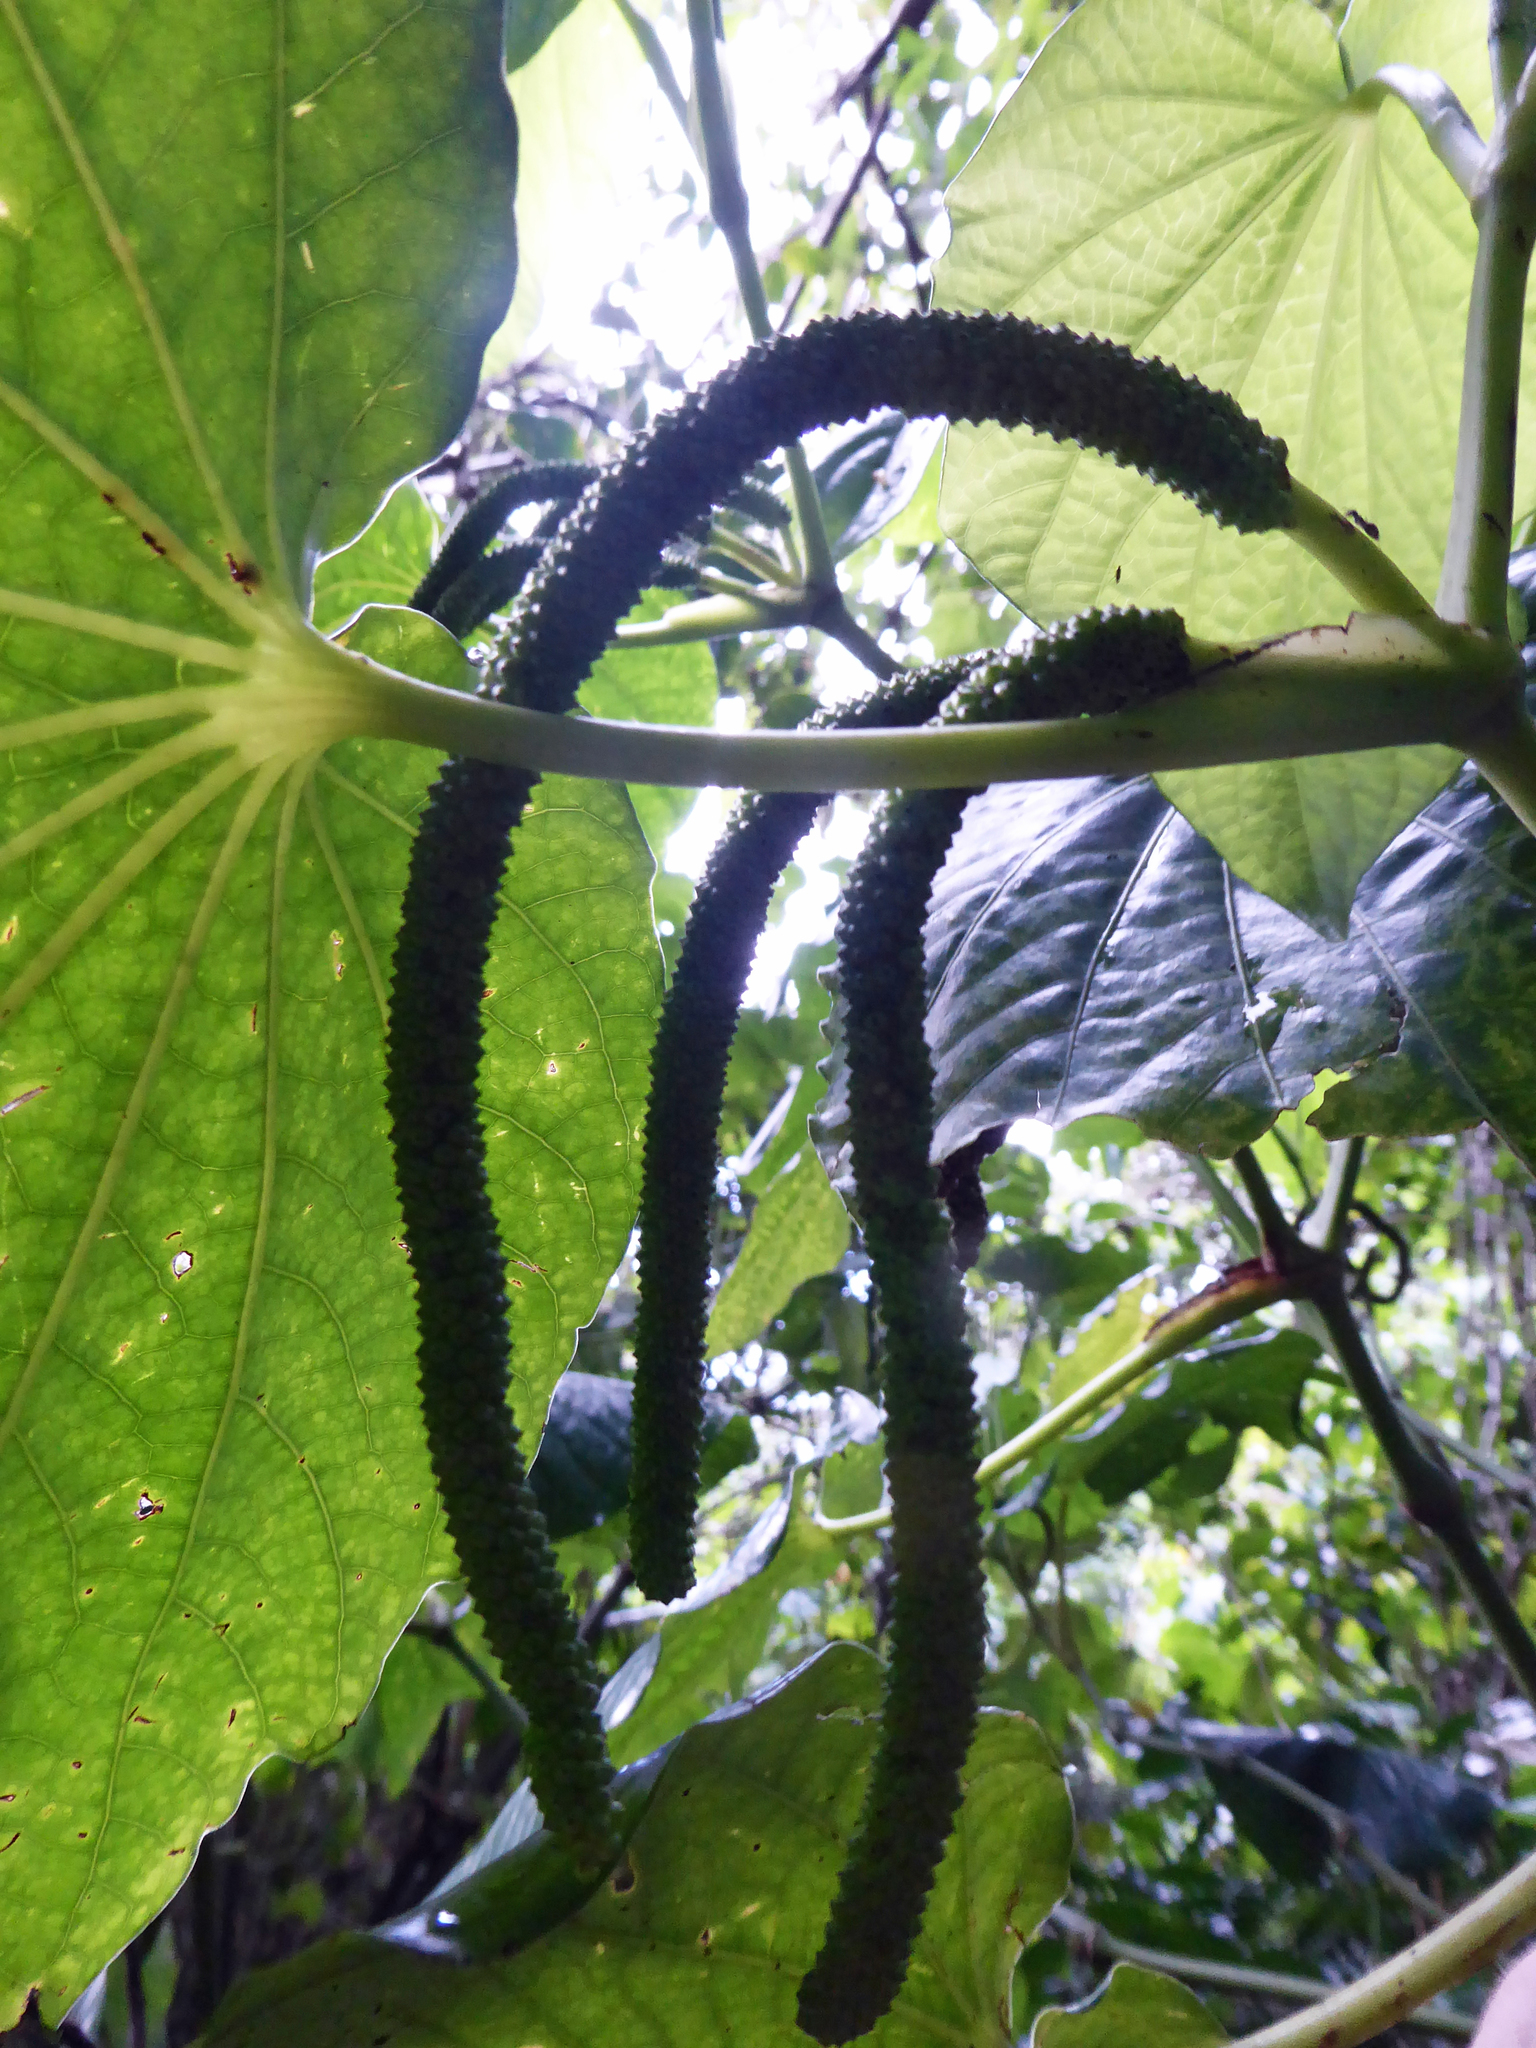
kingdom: Plantae
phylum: Tracheophyta
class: Magnoliopsida
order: Piperales
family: Piperaceae
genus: Piper
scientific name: Piper latifolium
